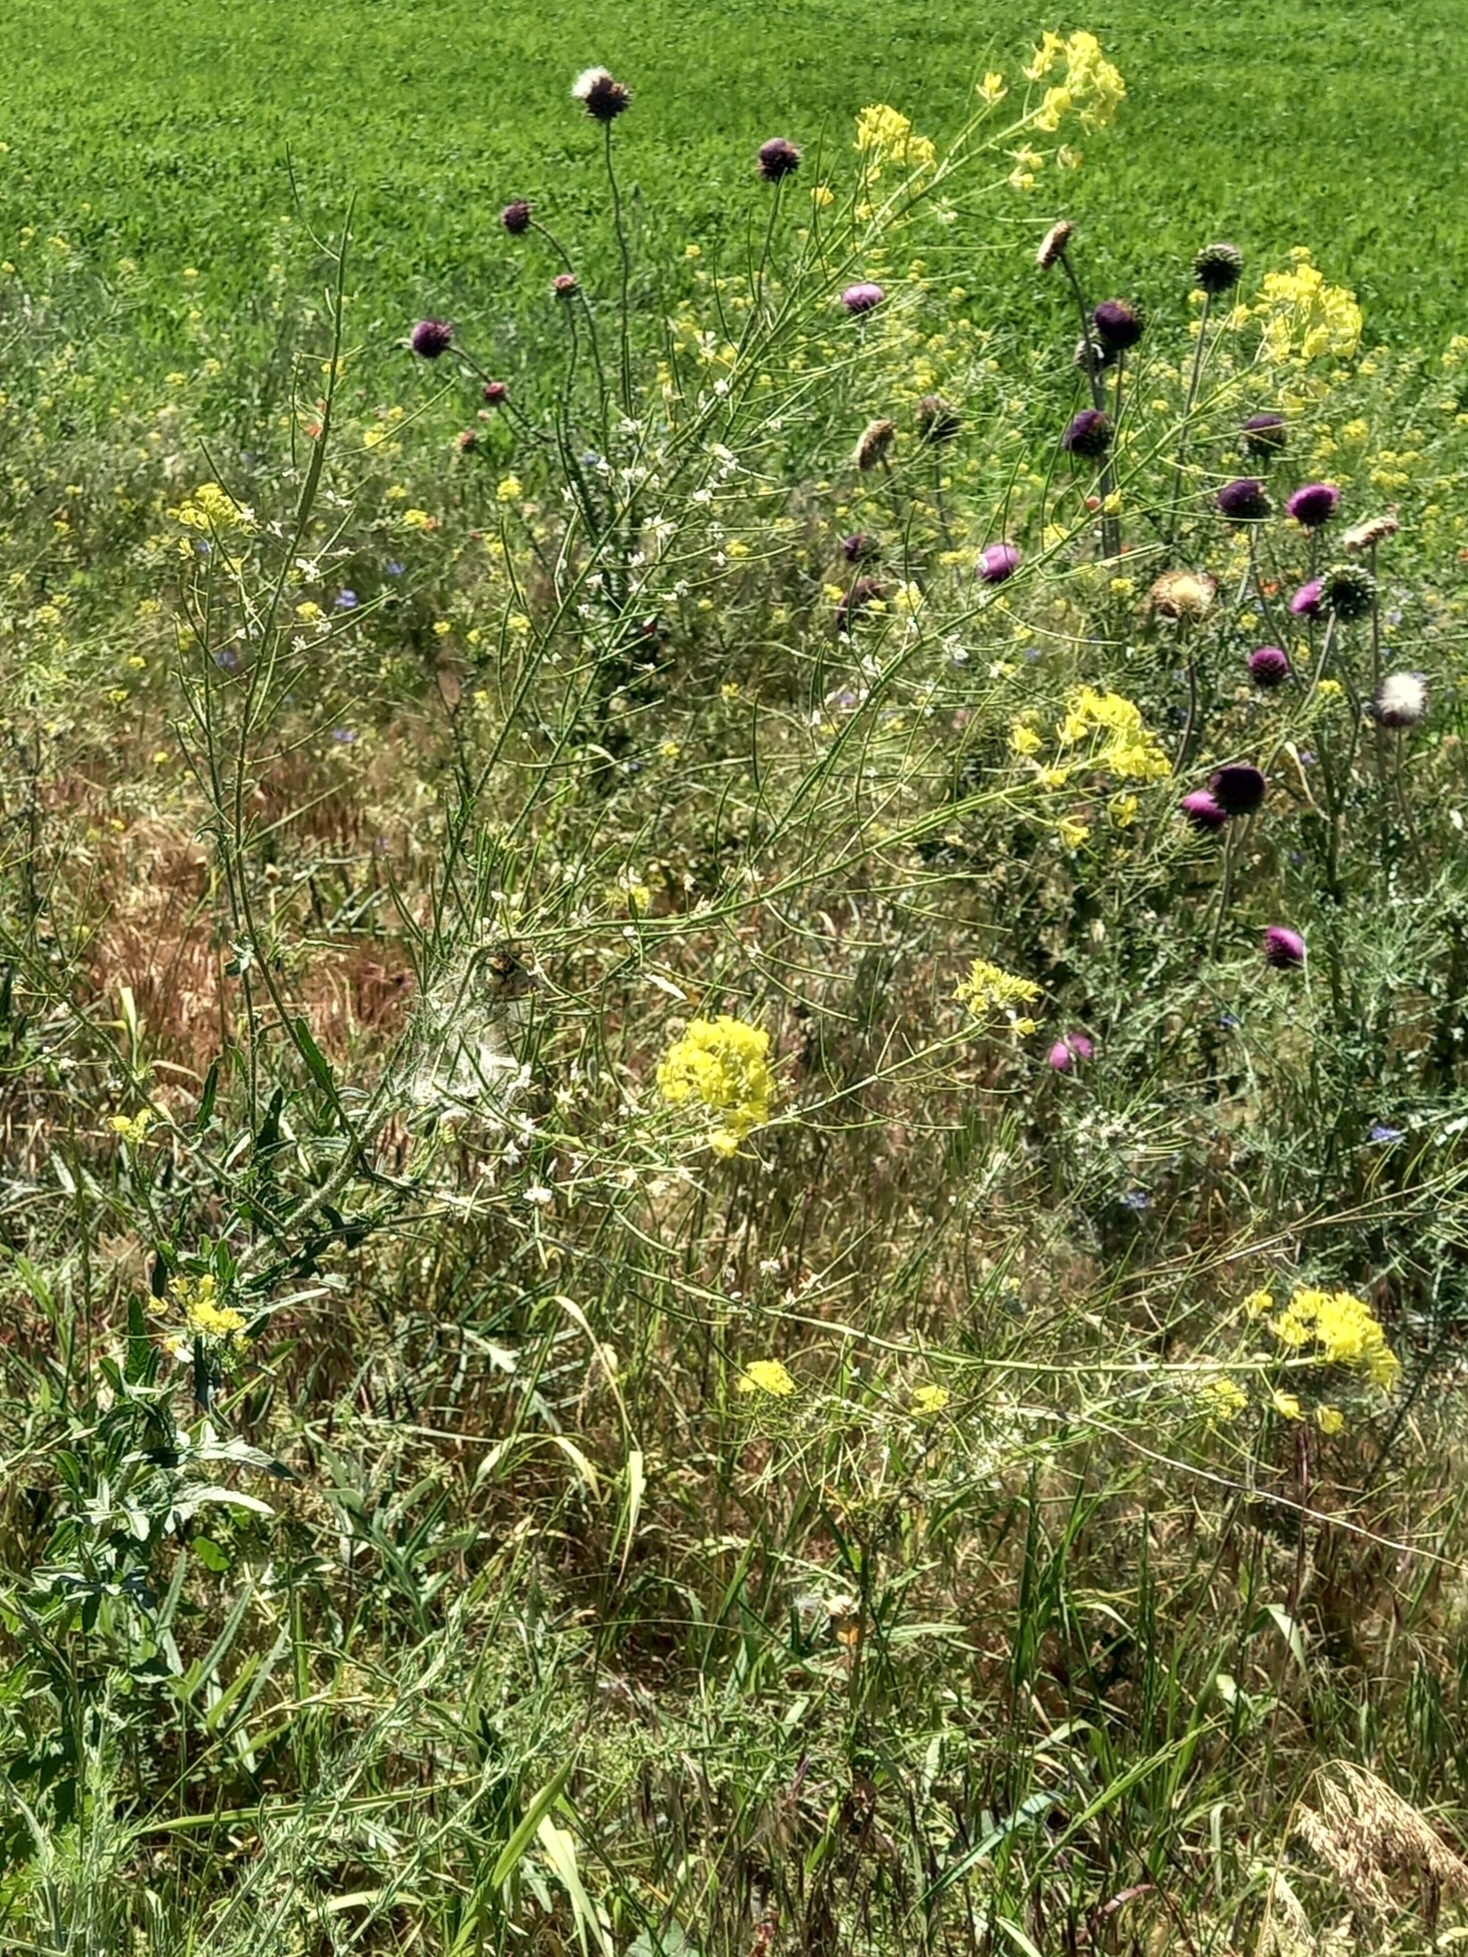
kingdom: Plantae
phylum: Tracheophyta
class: Magnoliopsida
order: Brassicales
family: Brassicaceae
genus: Sisymbrium
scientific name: Sisymbrium loeselii
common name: False london-rocket
